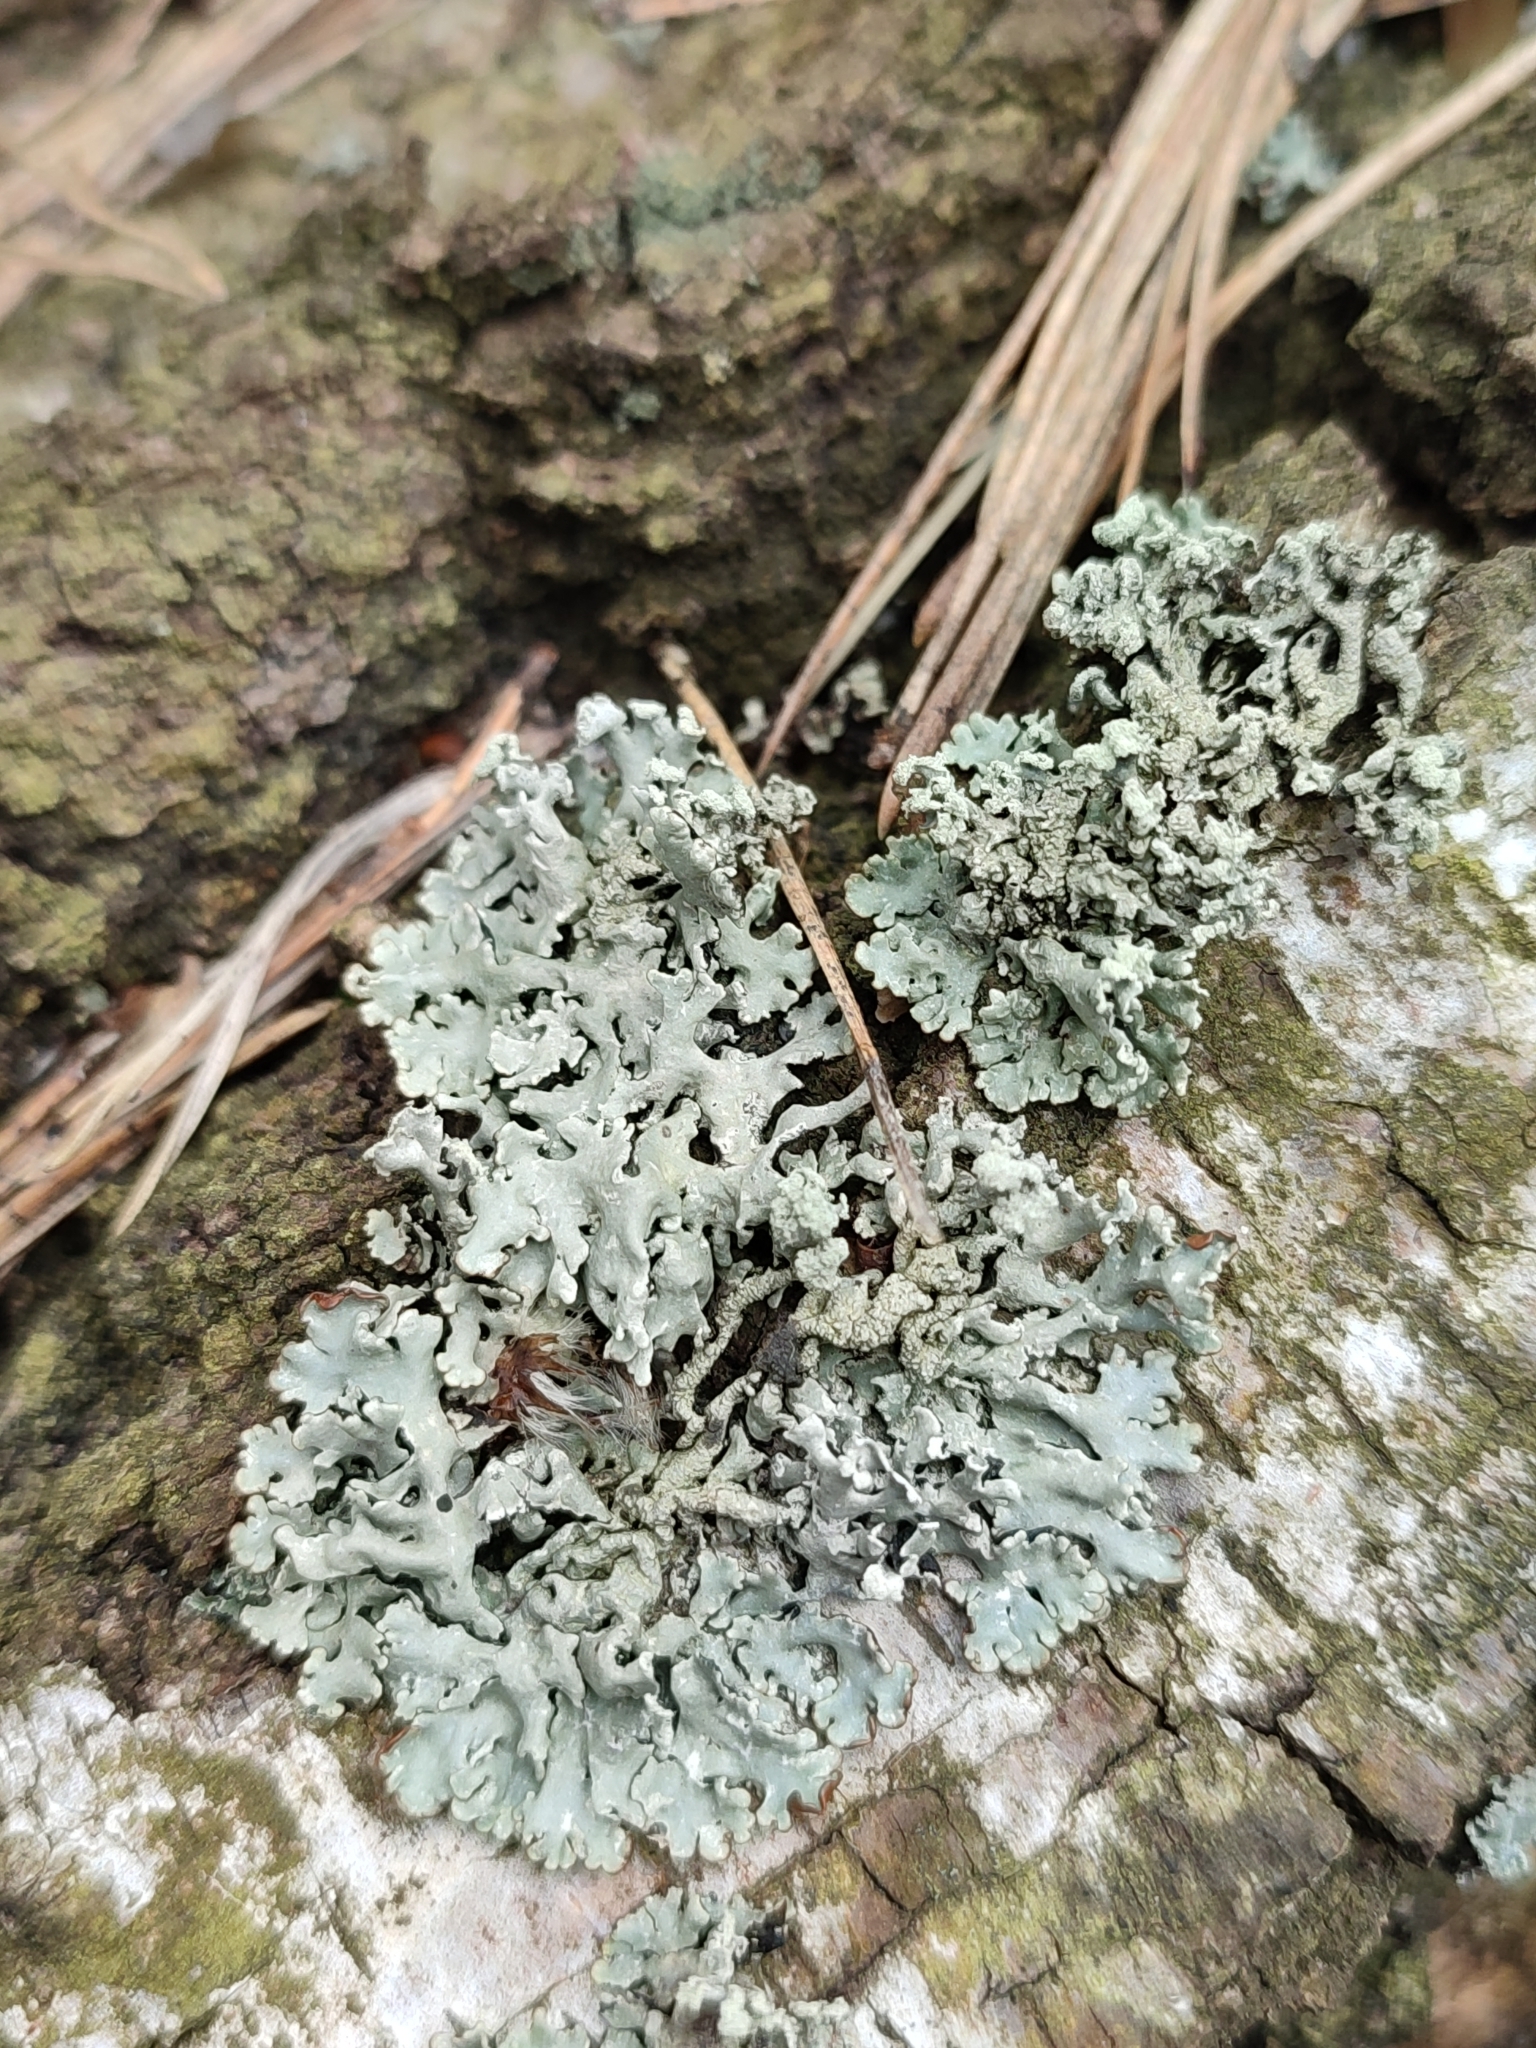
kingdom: Fungi
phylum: Ascomycota
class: Lecanoromycetes
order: Lecanorales
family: Parmeliaceae
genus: Hypogymnia
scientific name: Hypogymnia physodes
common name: Dark crottle
